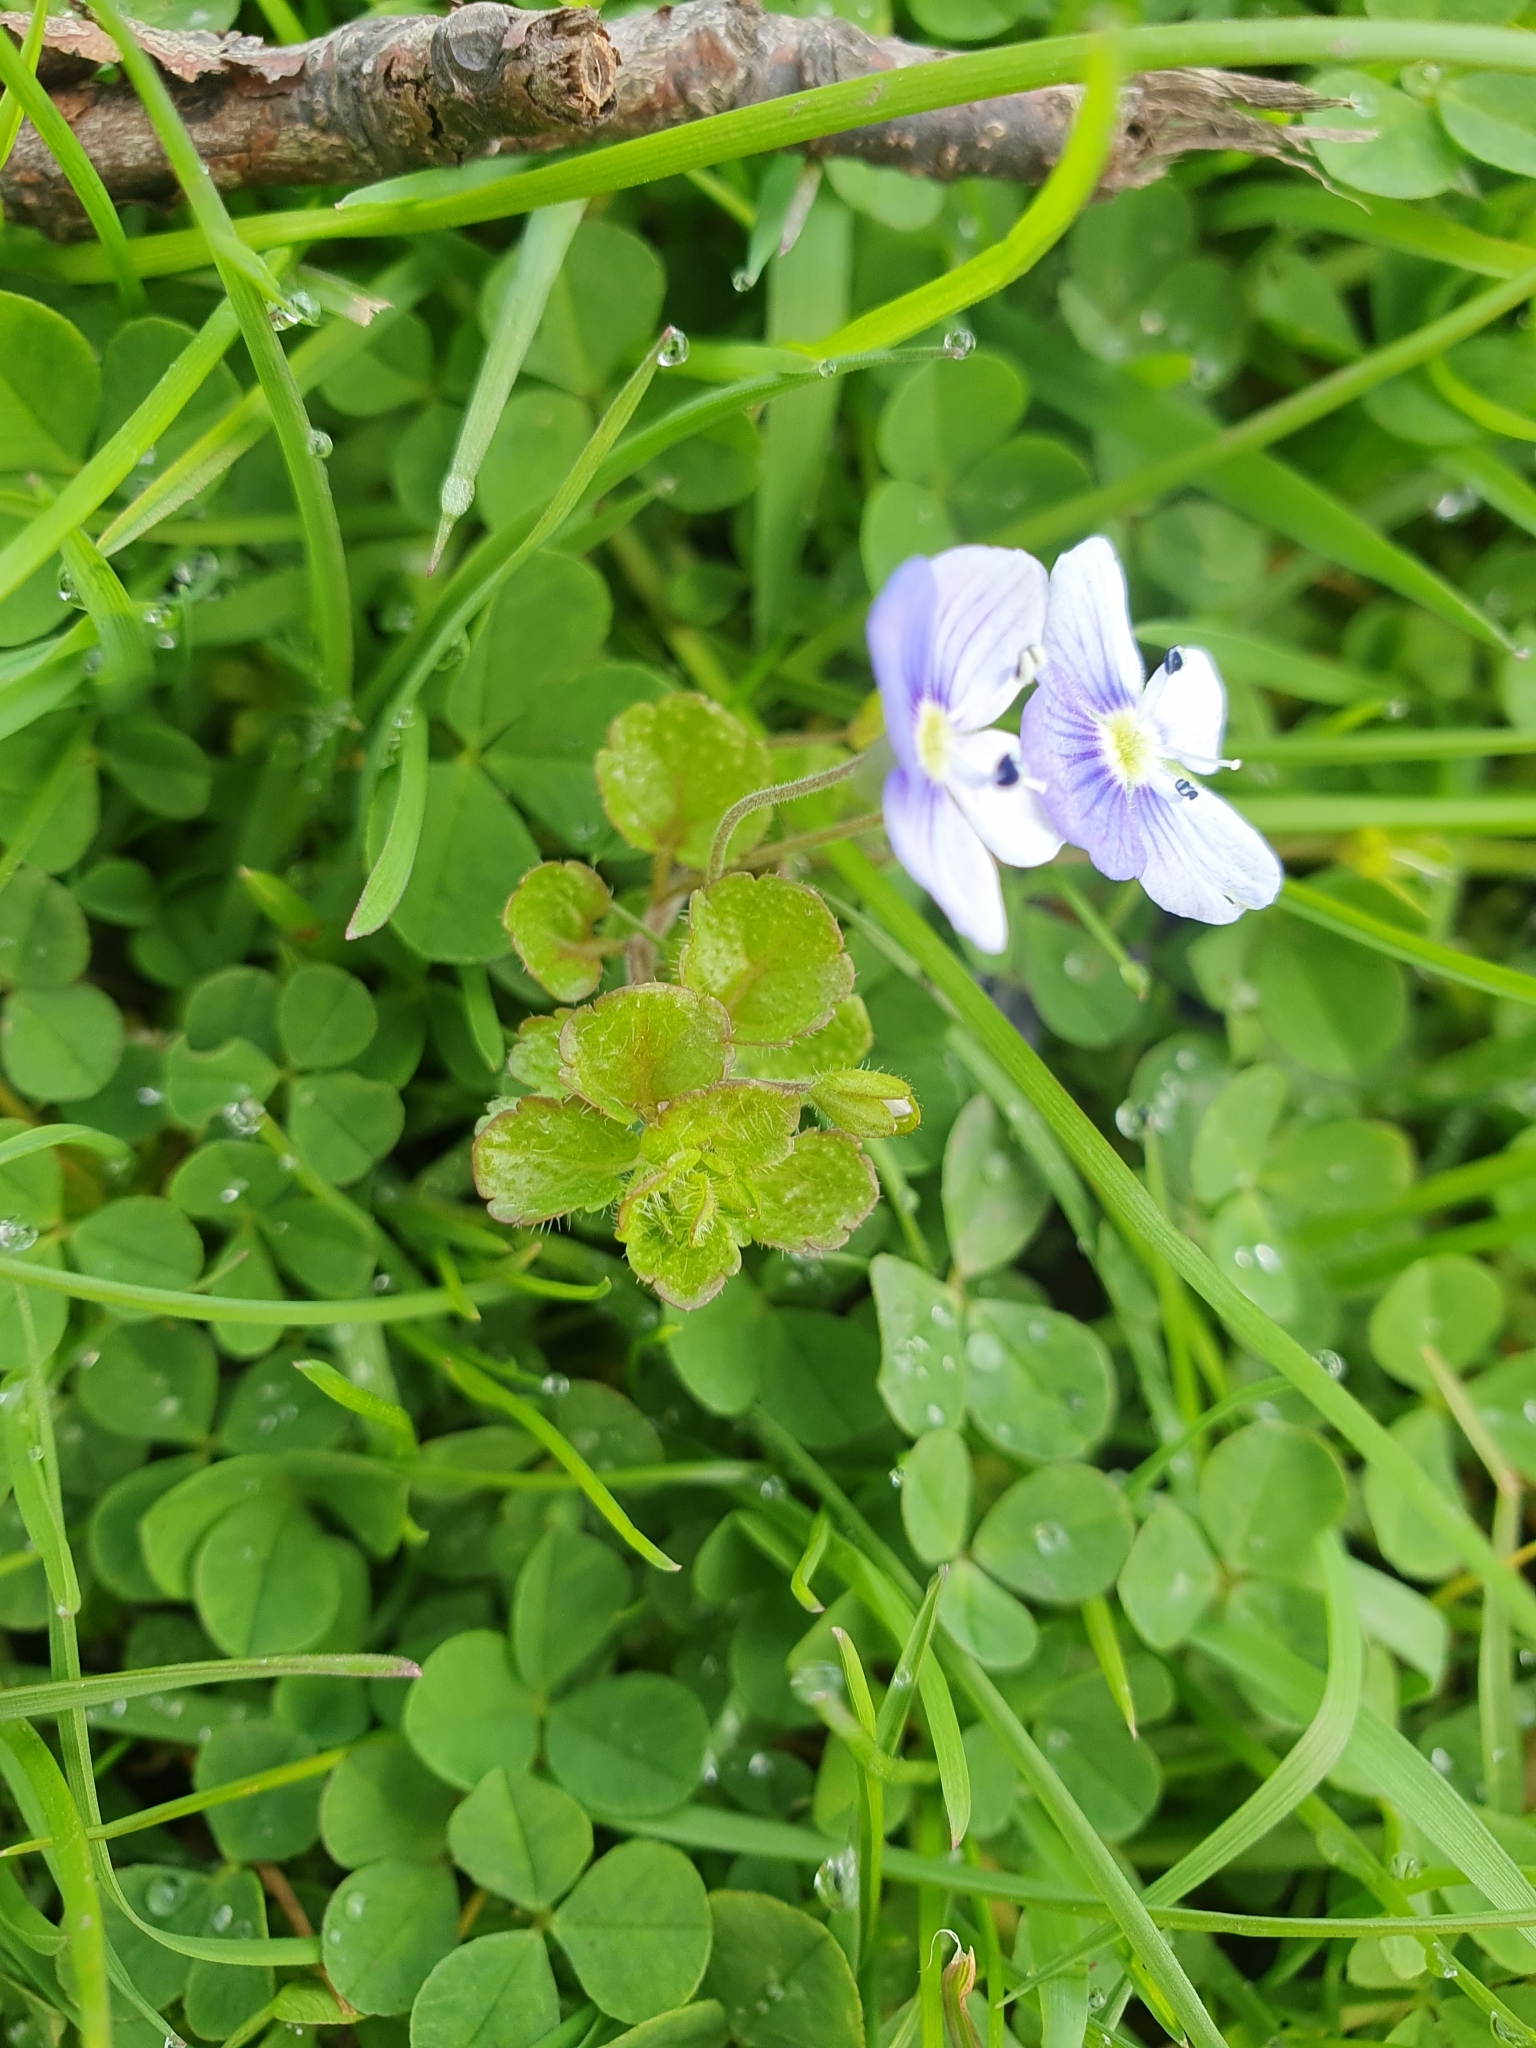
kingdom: Plantae
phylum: Tracheophyta
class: Magnoliopsida
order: Lamiales
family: Plantaginaceae
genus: Veronica
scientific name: Veronica filiformis
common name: Slender speedwell
